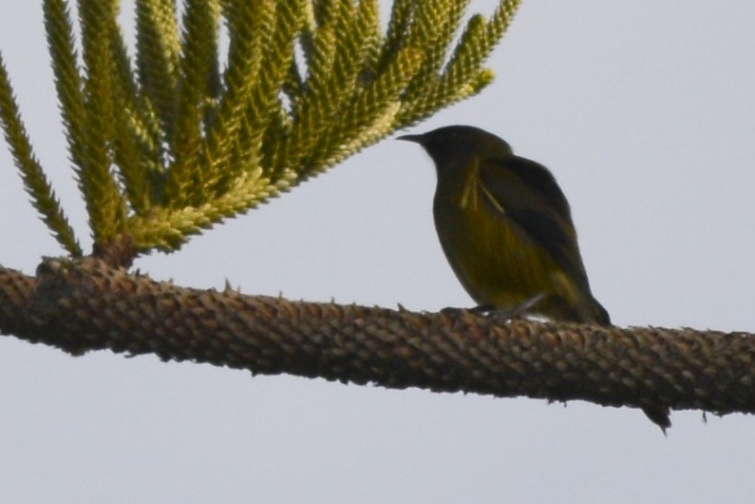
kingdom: Animalia
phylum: Chordata
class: Aves
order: Passeriformes
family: Meliphagidae
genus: Anthornis
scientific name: Anthornis melanura
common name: New zealand bellbird
